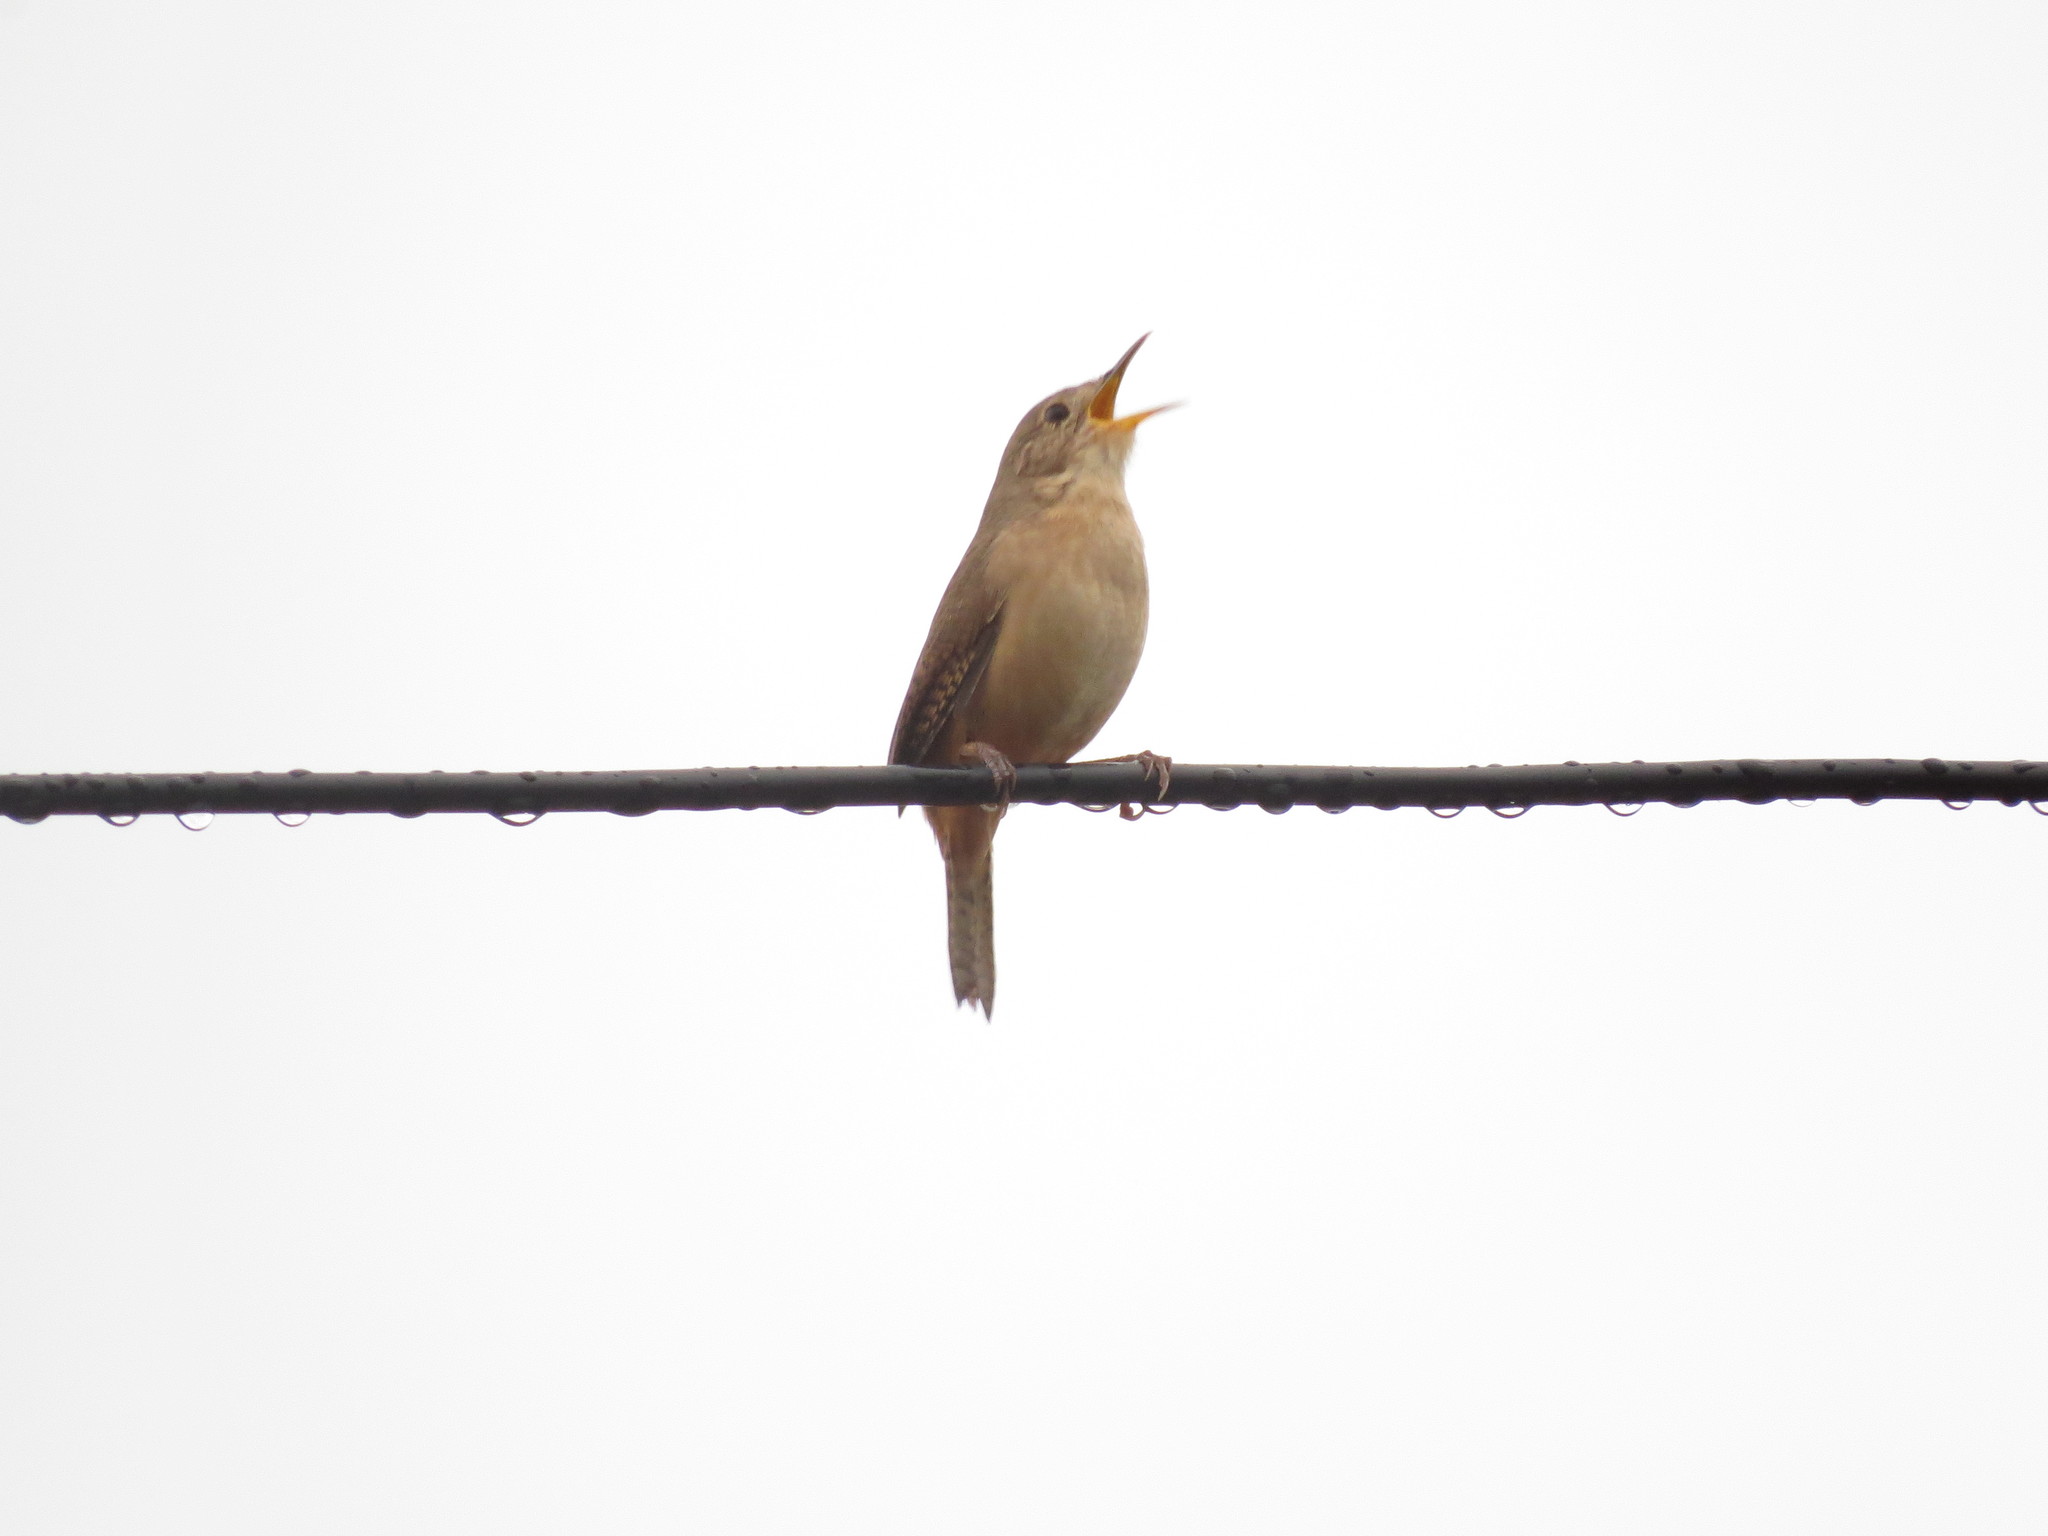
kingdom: Animalia
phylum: Chordata
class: Aves
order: Passeriformes
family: Troglodytidae
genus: Troglodytes
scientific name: Troglodytes aedon
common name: House wren
